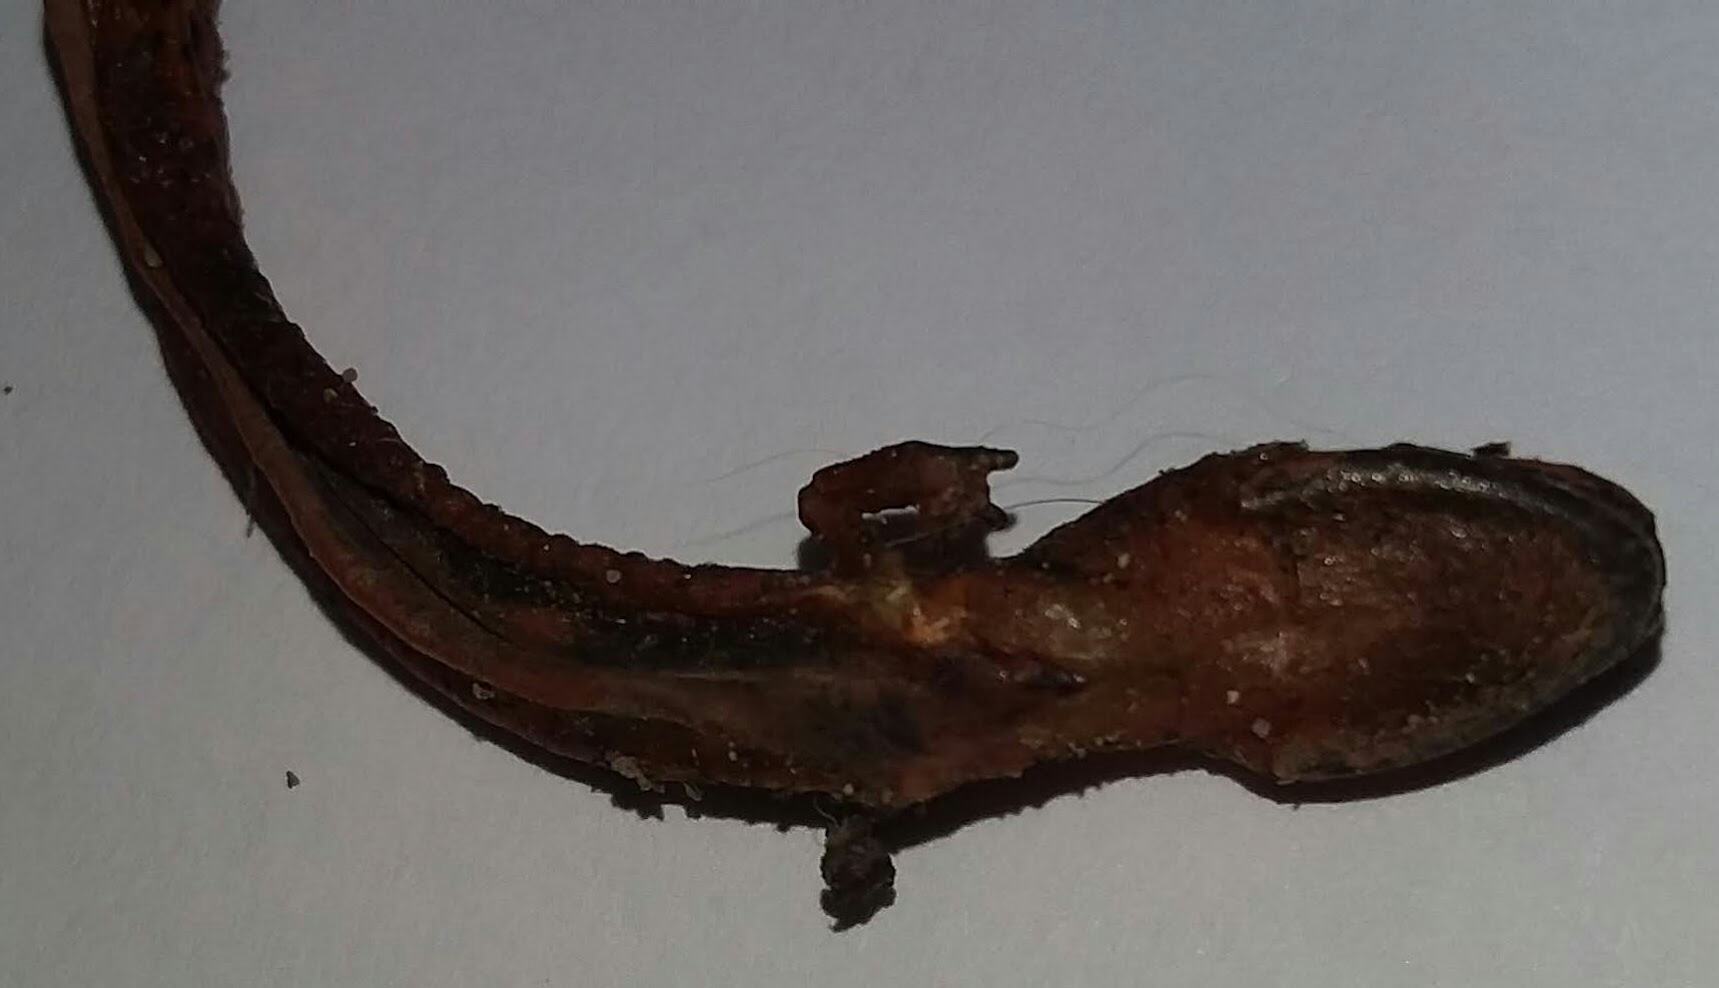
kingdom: Animalia
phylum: Chordata
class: Amphibia
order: Caudata
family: Plethodontidae
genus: Pseudotriton
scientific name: Pseudotriton ruber
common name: Red salamander
